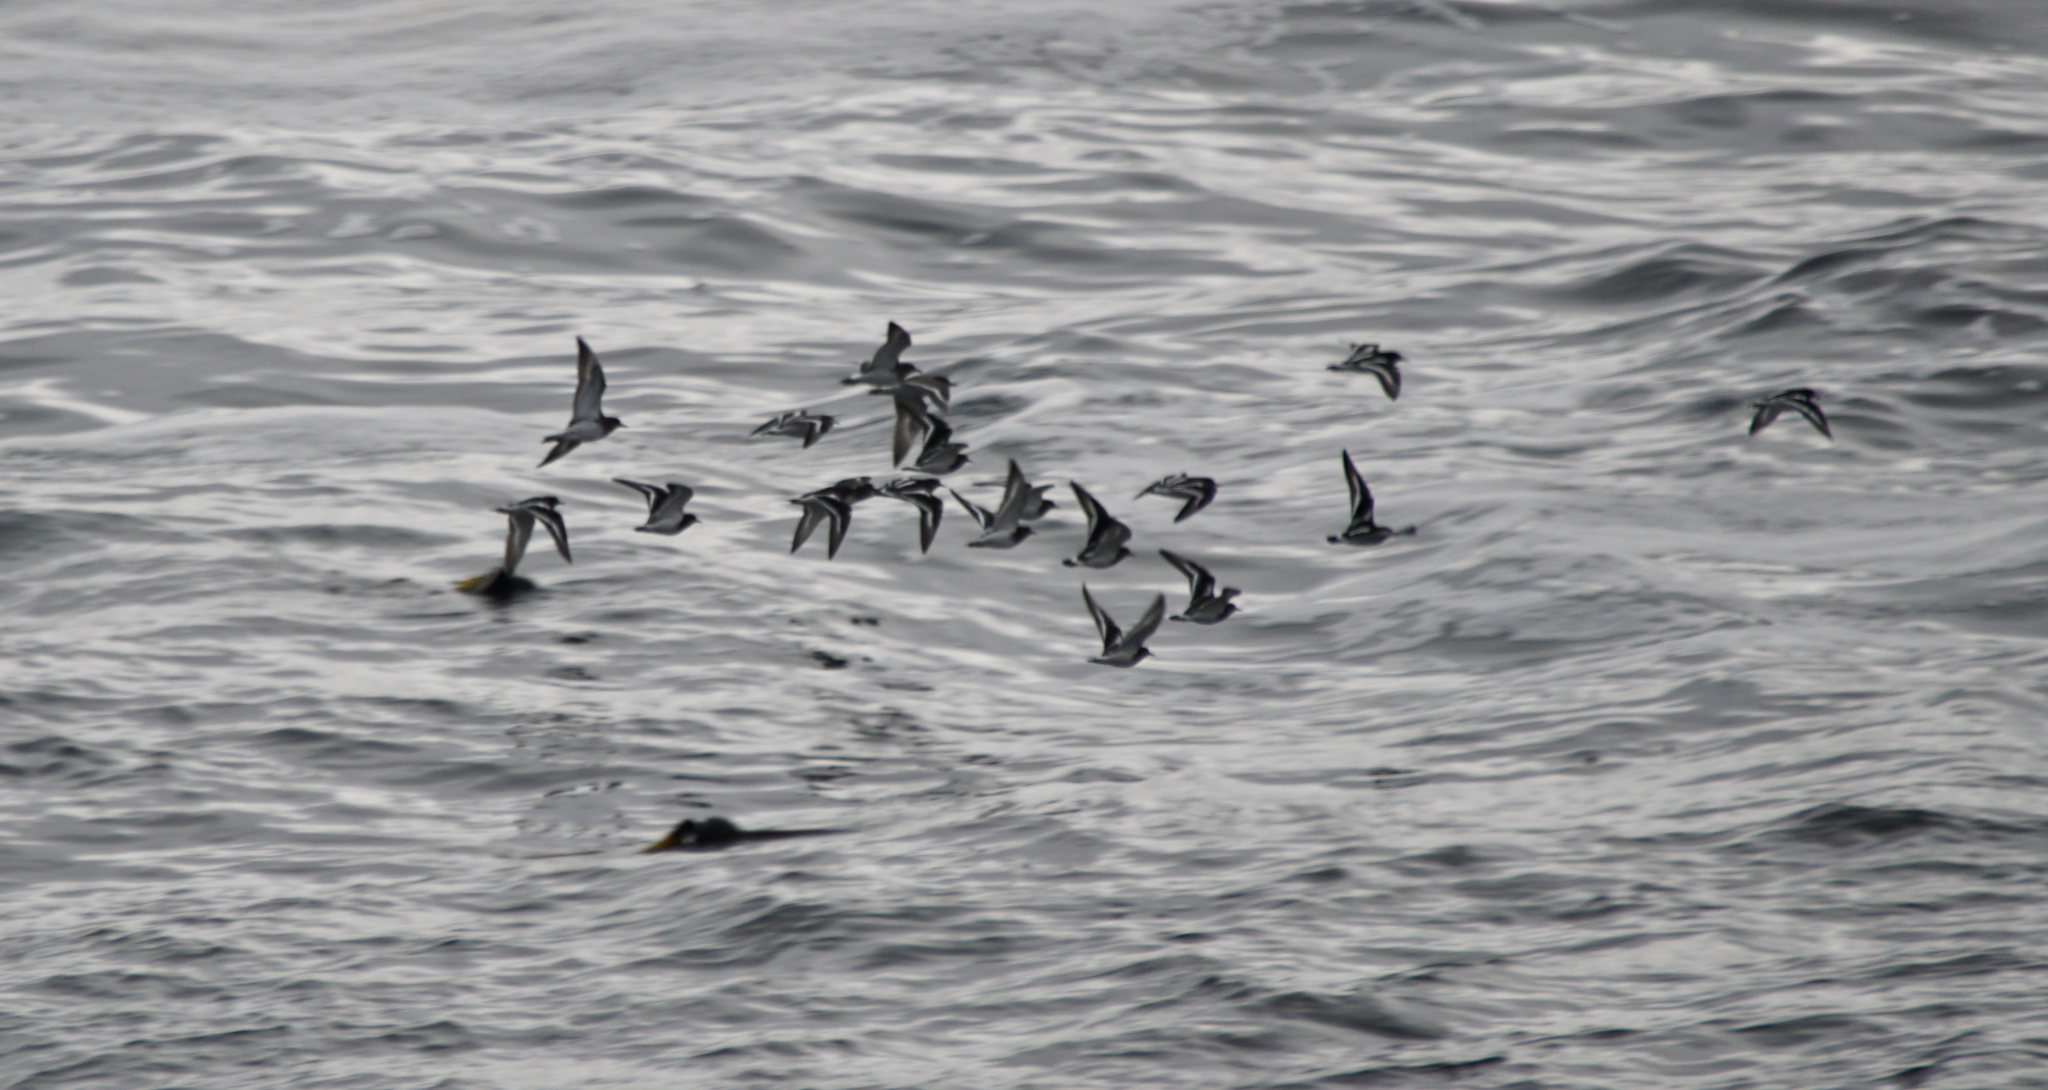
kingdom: Animalia
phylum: Chordata
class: Aves
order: Charadriiformes
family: Scolopacidae
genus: Arenaria
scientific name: Arenaria melanocephala
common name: Black turnstone
